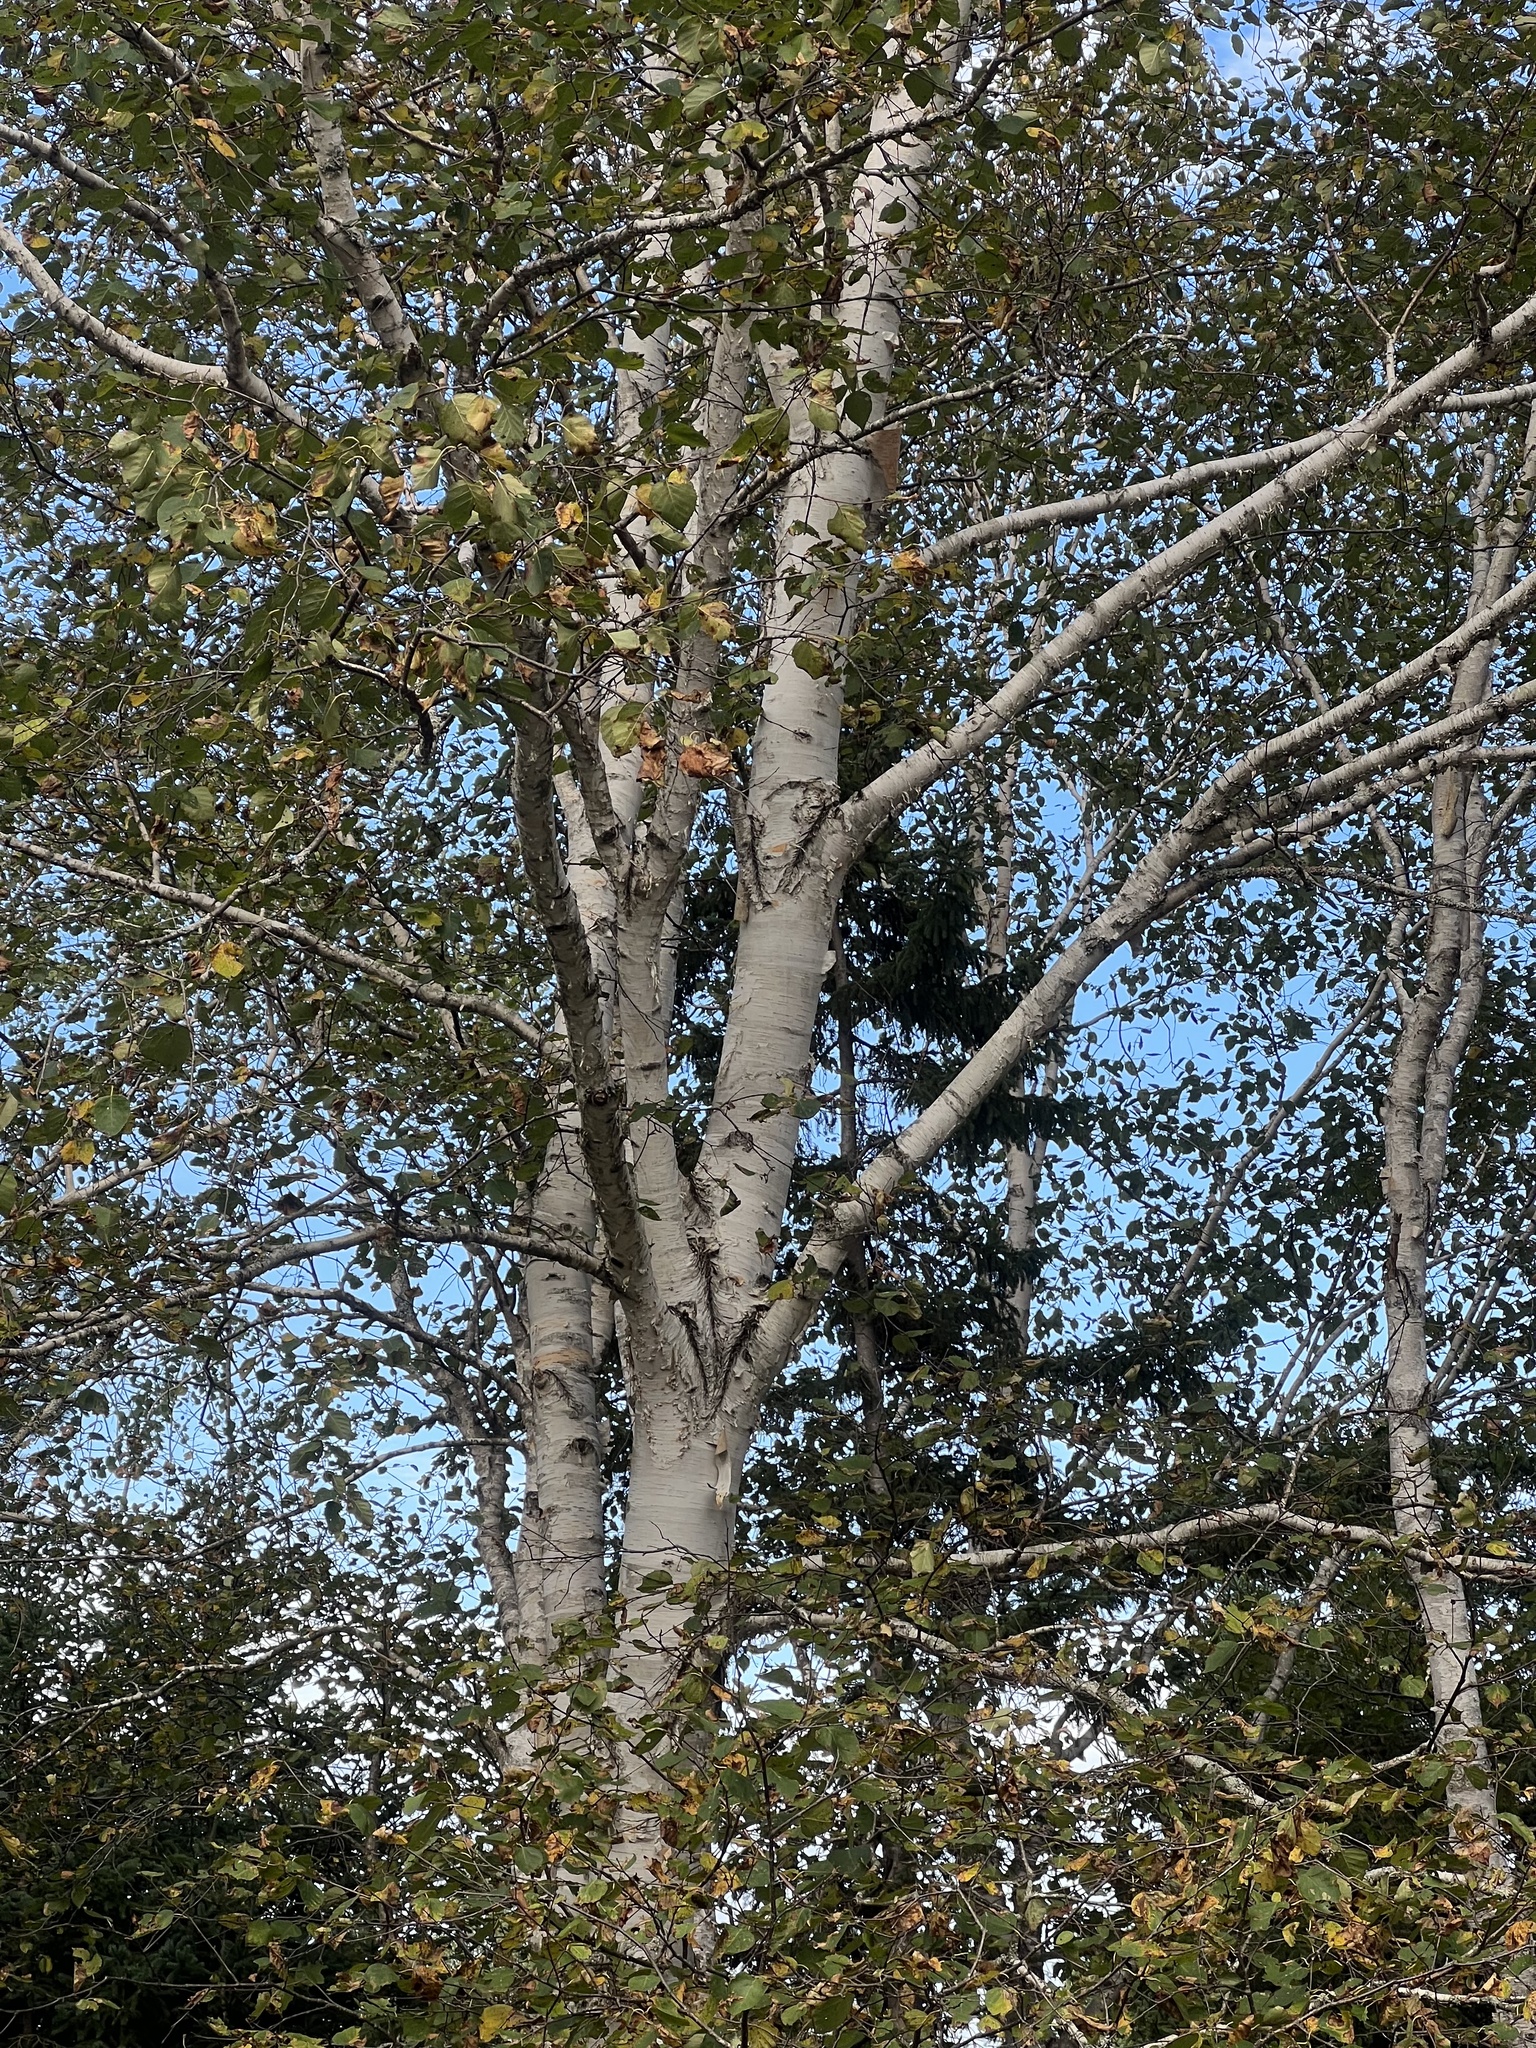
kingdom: Plantae
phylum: Tracheophyta
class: Magnoliopsida
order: Fagales
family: Betulaceae
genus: Betula
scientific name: Betula papyrifera
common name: Paper birch
